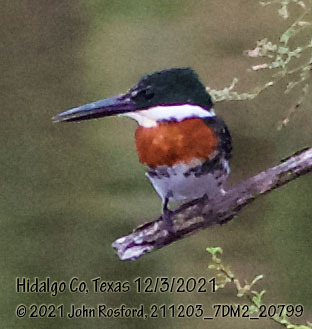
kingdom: Animalia
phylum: Chordata
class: Aves
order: Coraciiformes
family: Alcedinidae
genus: Chloroceryle
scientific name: Chloroceryle americana
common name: Green kingfisher
